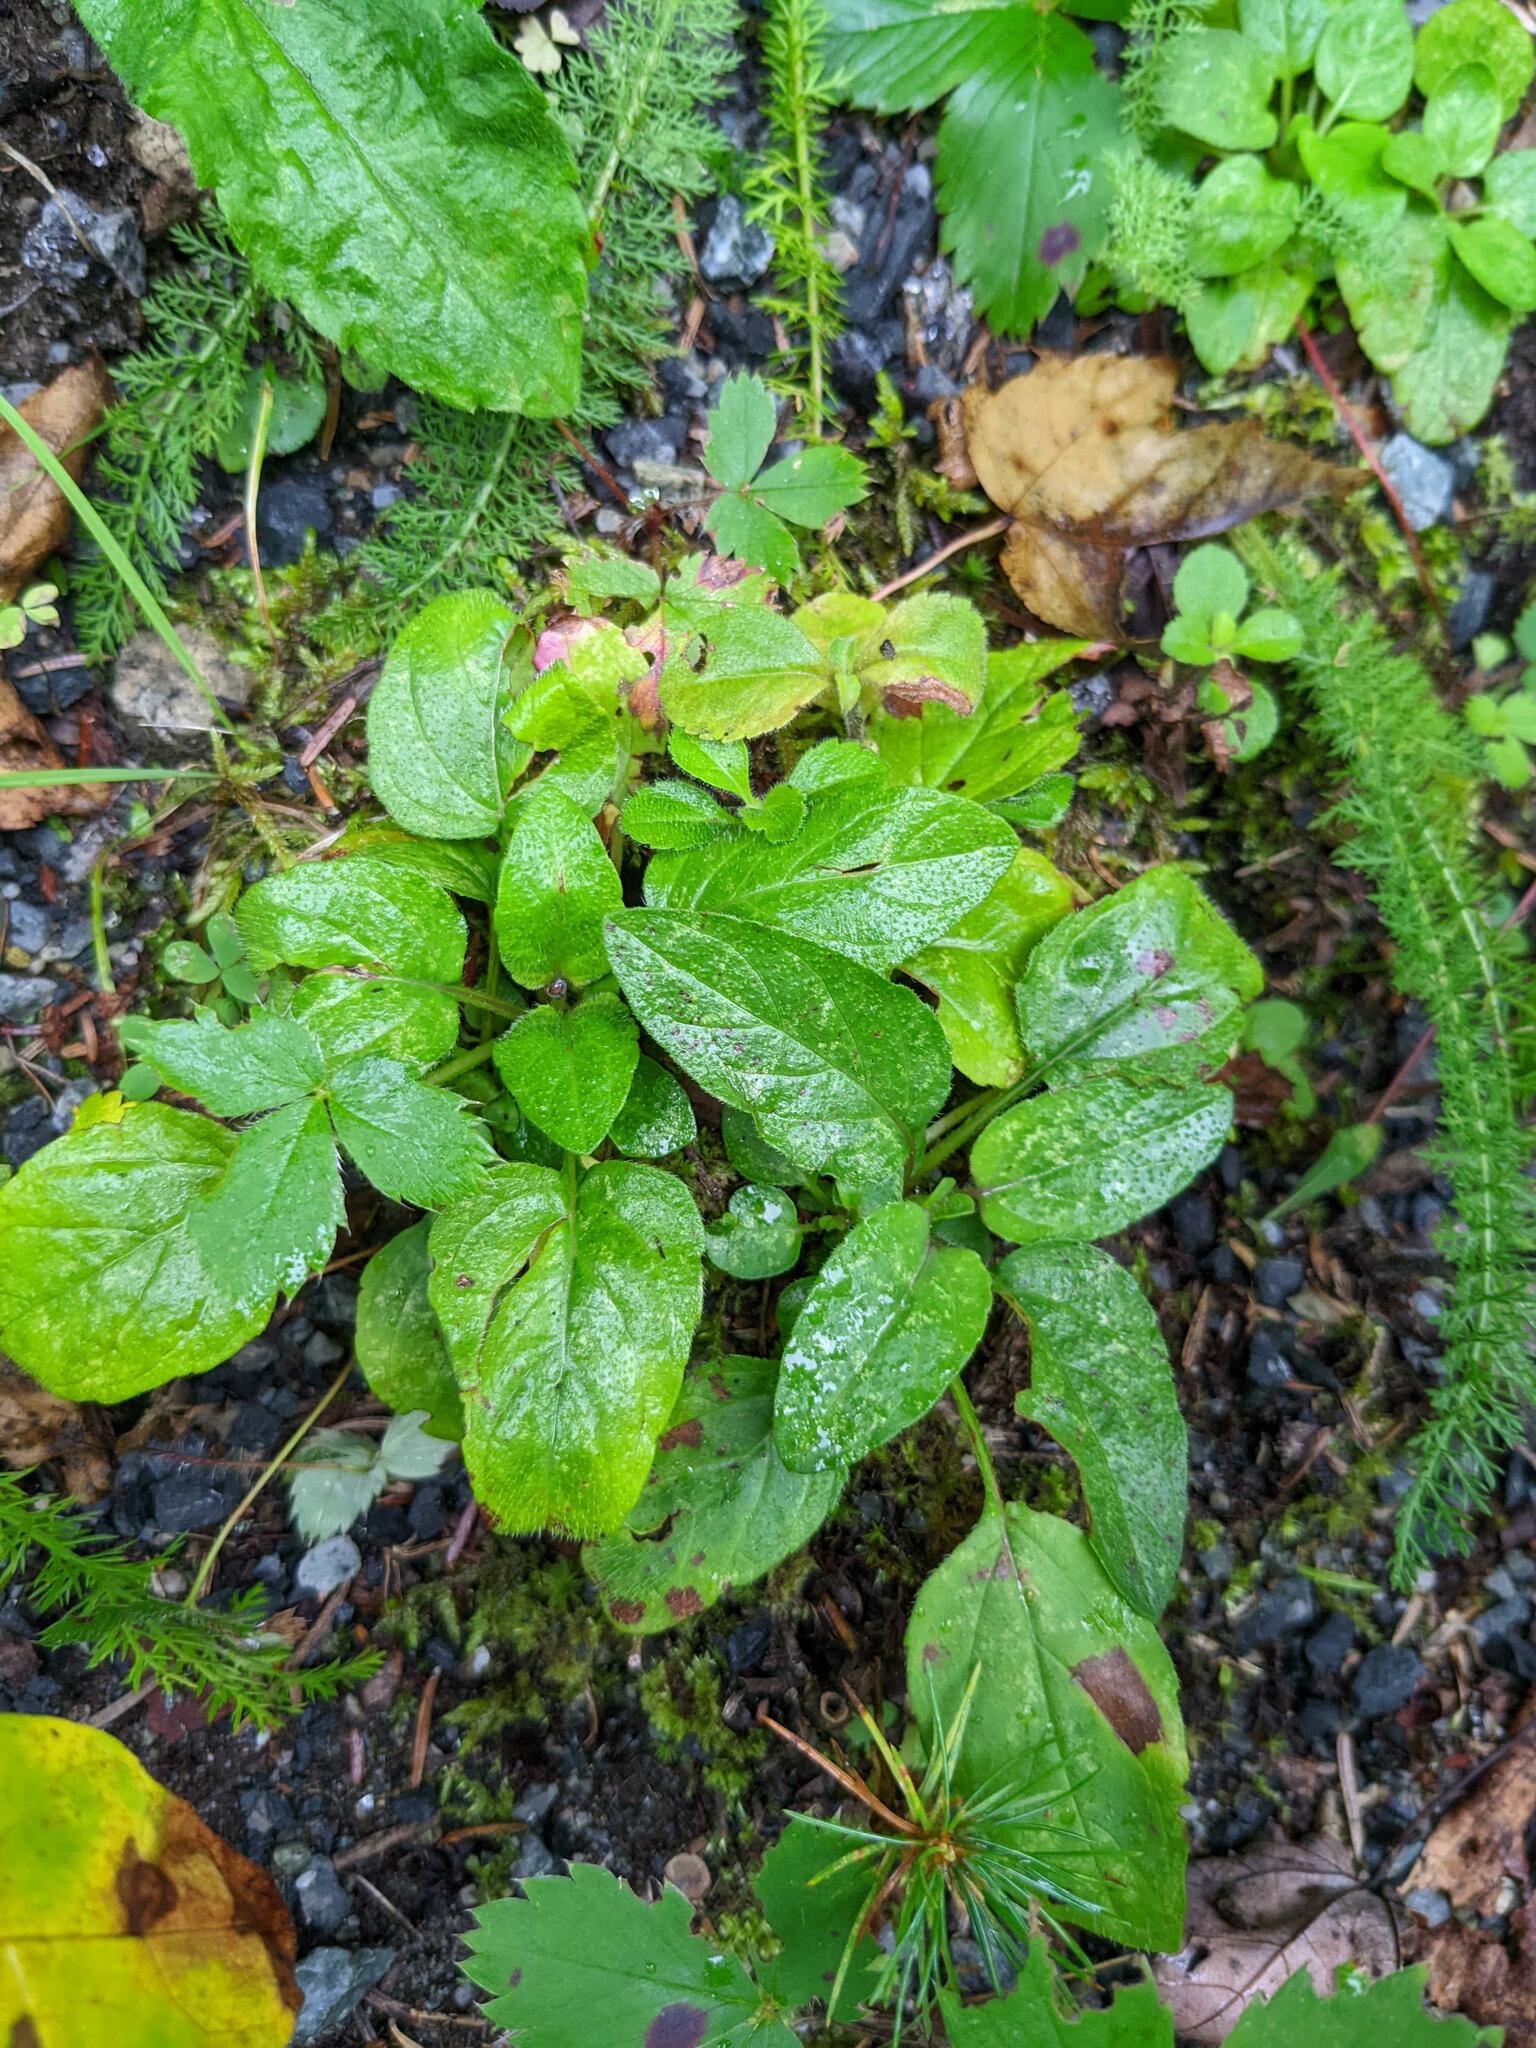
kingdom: Plantae
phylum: Tracheophyta
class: Magnoliopsida
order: Lamiales
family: Lamiaceae
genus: Prunella
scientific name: Prunella vulgaris
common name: Heal-all
